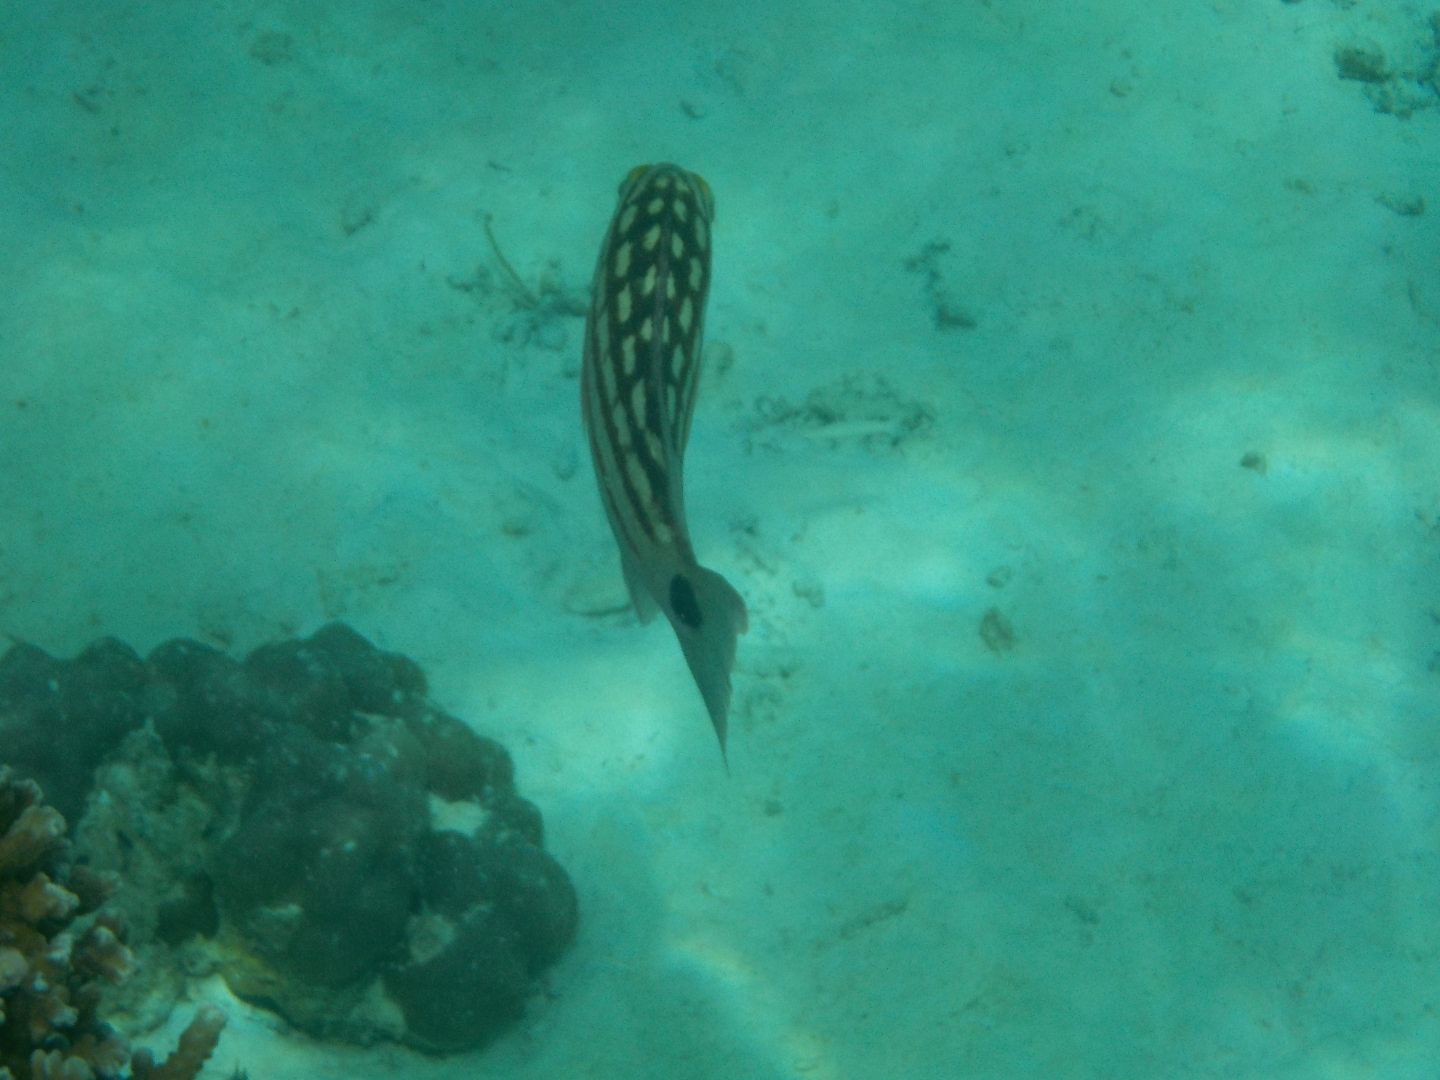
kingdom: Animalia
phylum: Chordata
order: Perciformes
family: Lutjanidae
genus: Lutjanus
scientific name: Lutjanus decussatus
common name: Checkered snapper
